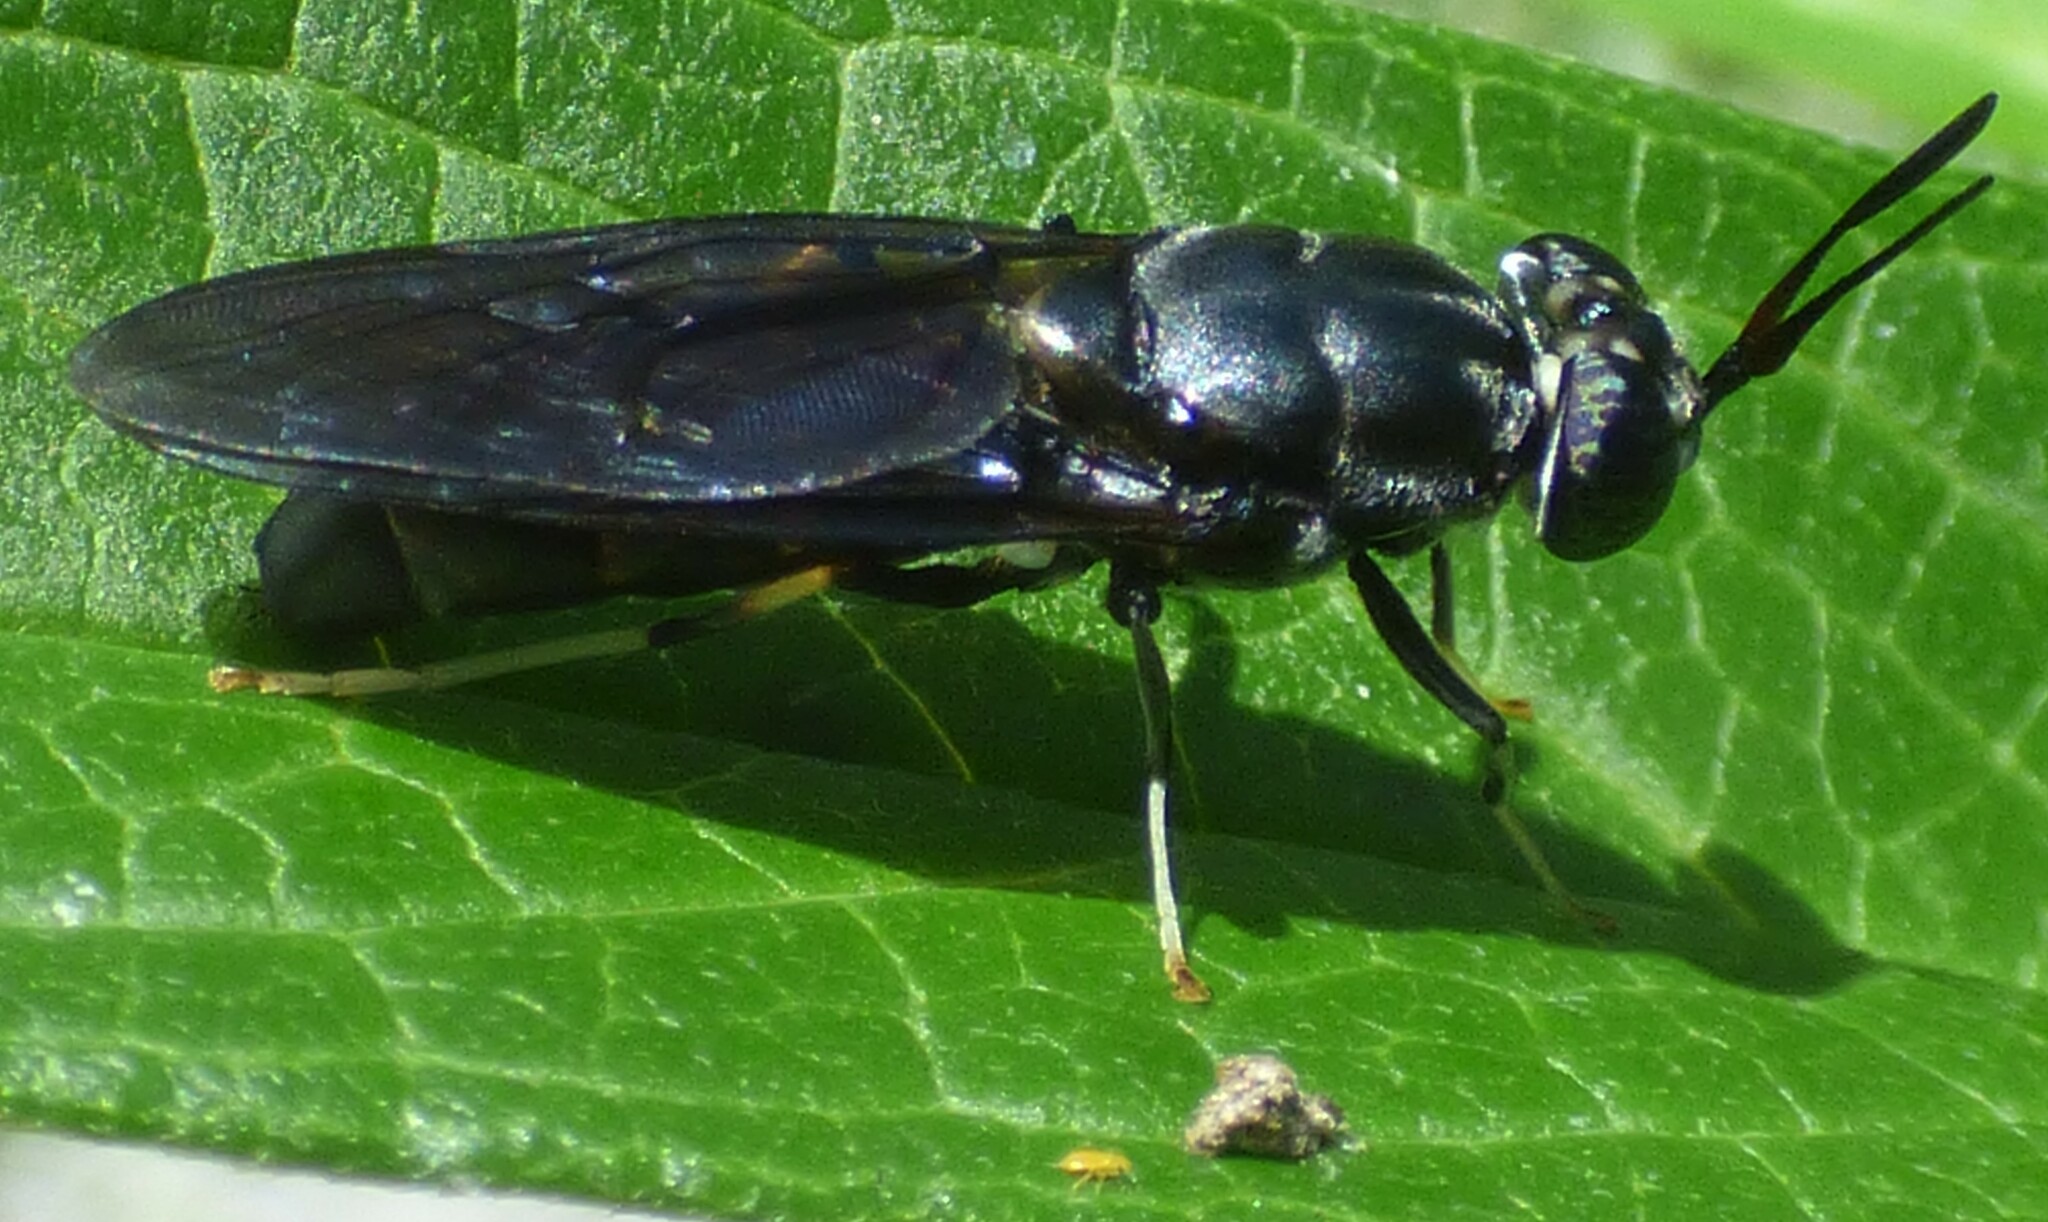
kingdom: Animalia
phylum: Arthropoda
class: Insecta
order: Diptera
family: Stratiomyidae
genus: Hermetia
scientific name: Hermetia illucens
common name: Black soldier fly
